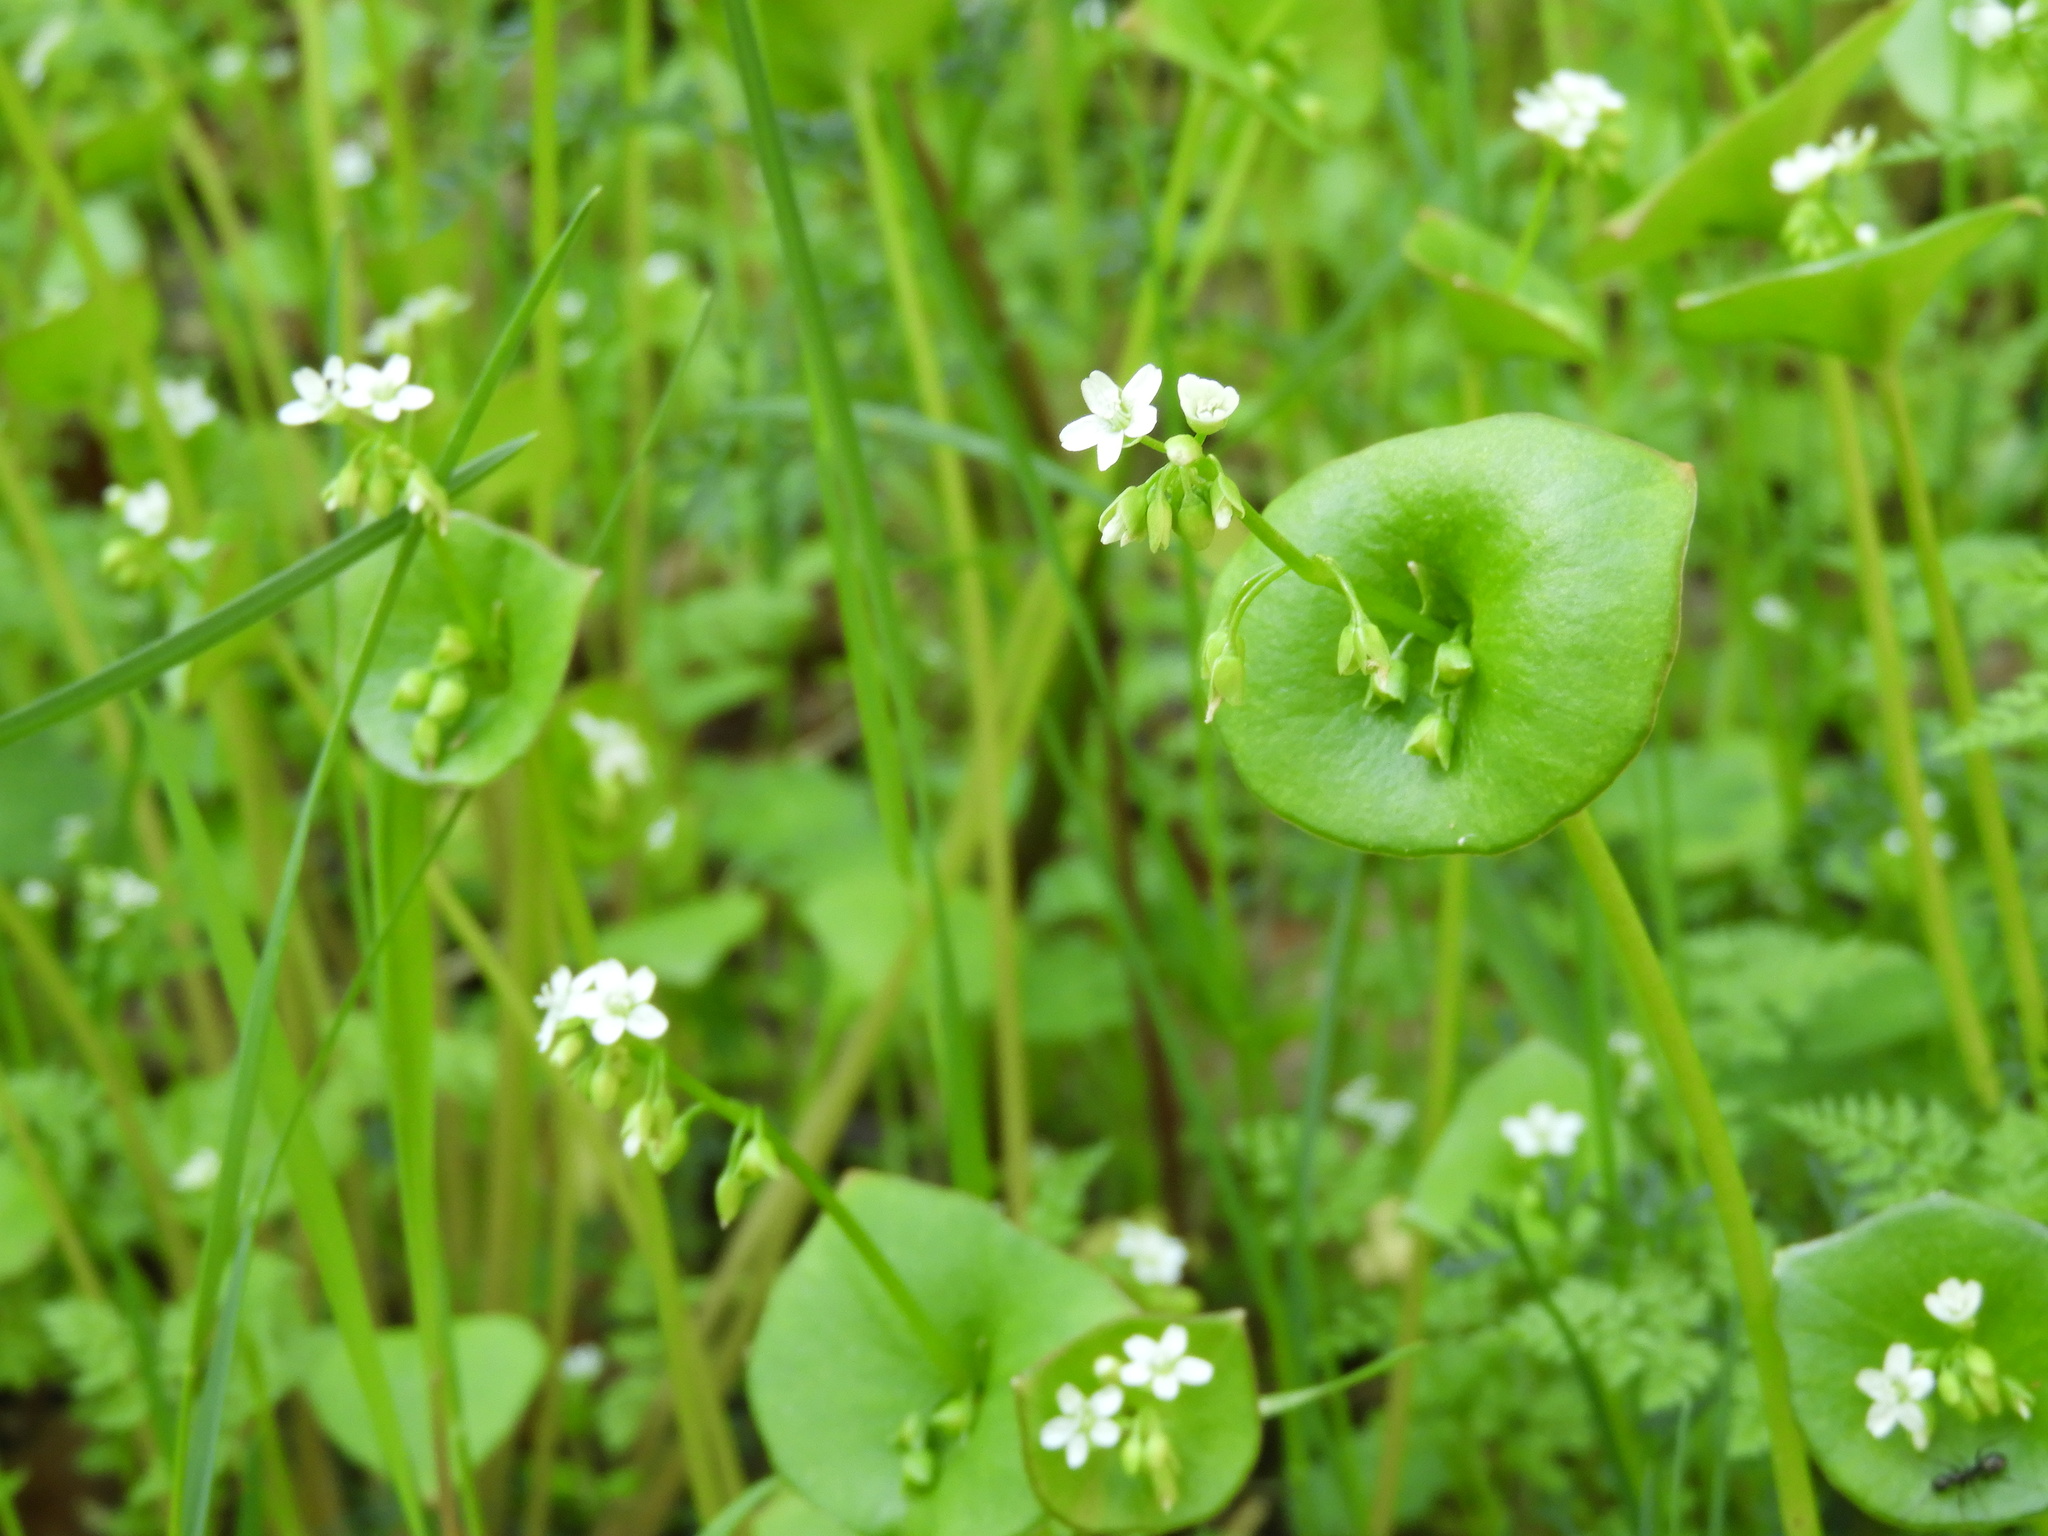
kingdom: Plantae
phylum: Tracheophyta
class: Magnoliopsida
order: Caryophyllales
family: Montiaceae
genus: Claytonia
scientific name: Claytonia perfoliata
